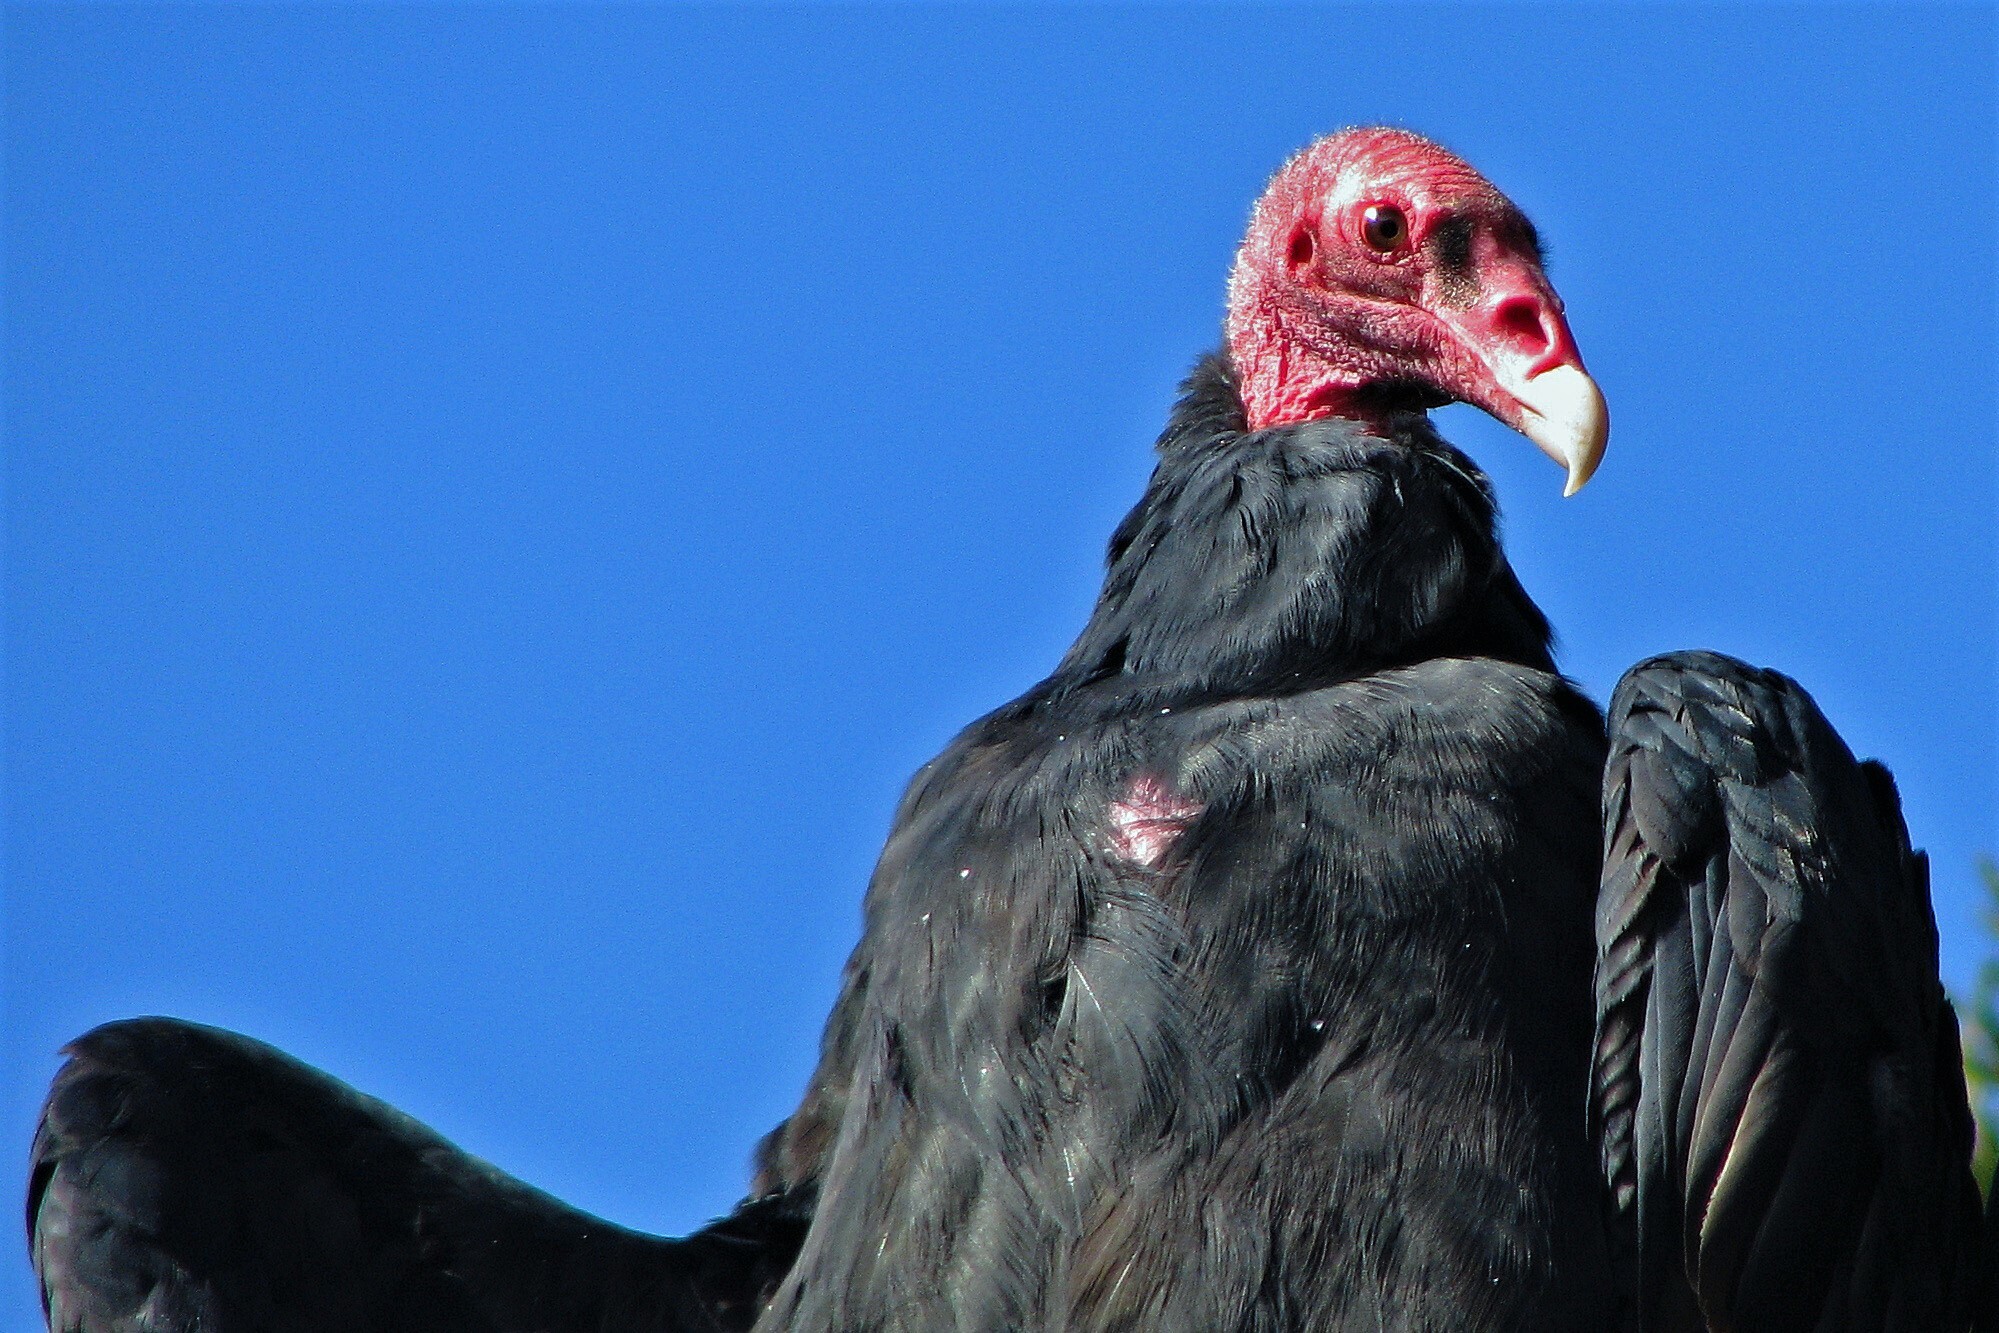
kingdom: Animalia
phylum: Chordata
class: Aves
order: Accipitriformes
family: Cathartidae
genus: Cathartes
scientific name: Cathartes aura
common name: Turkey vulture
